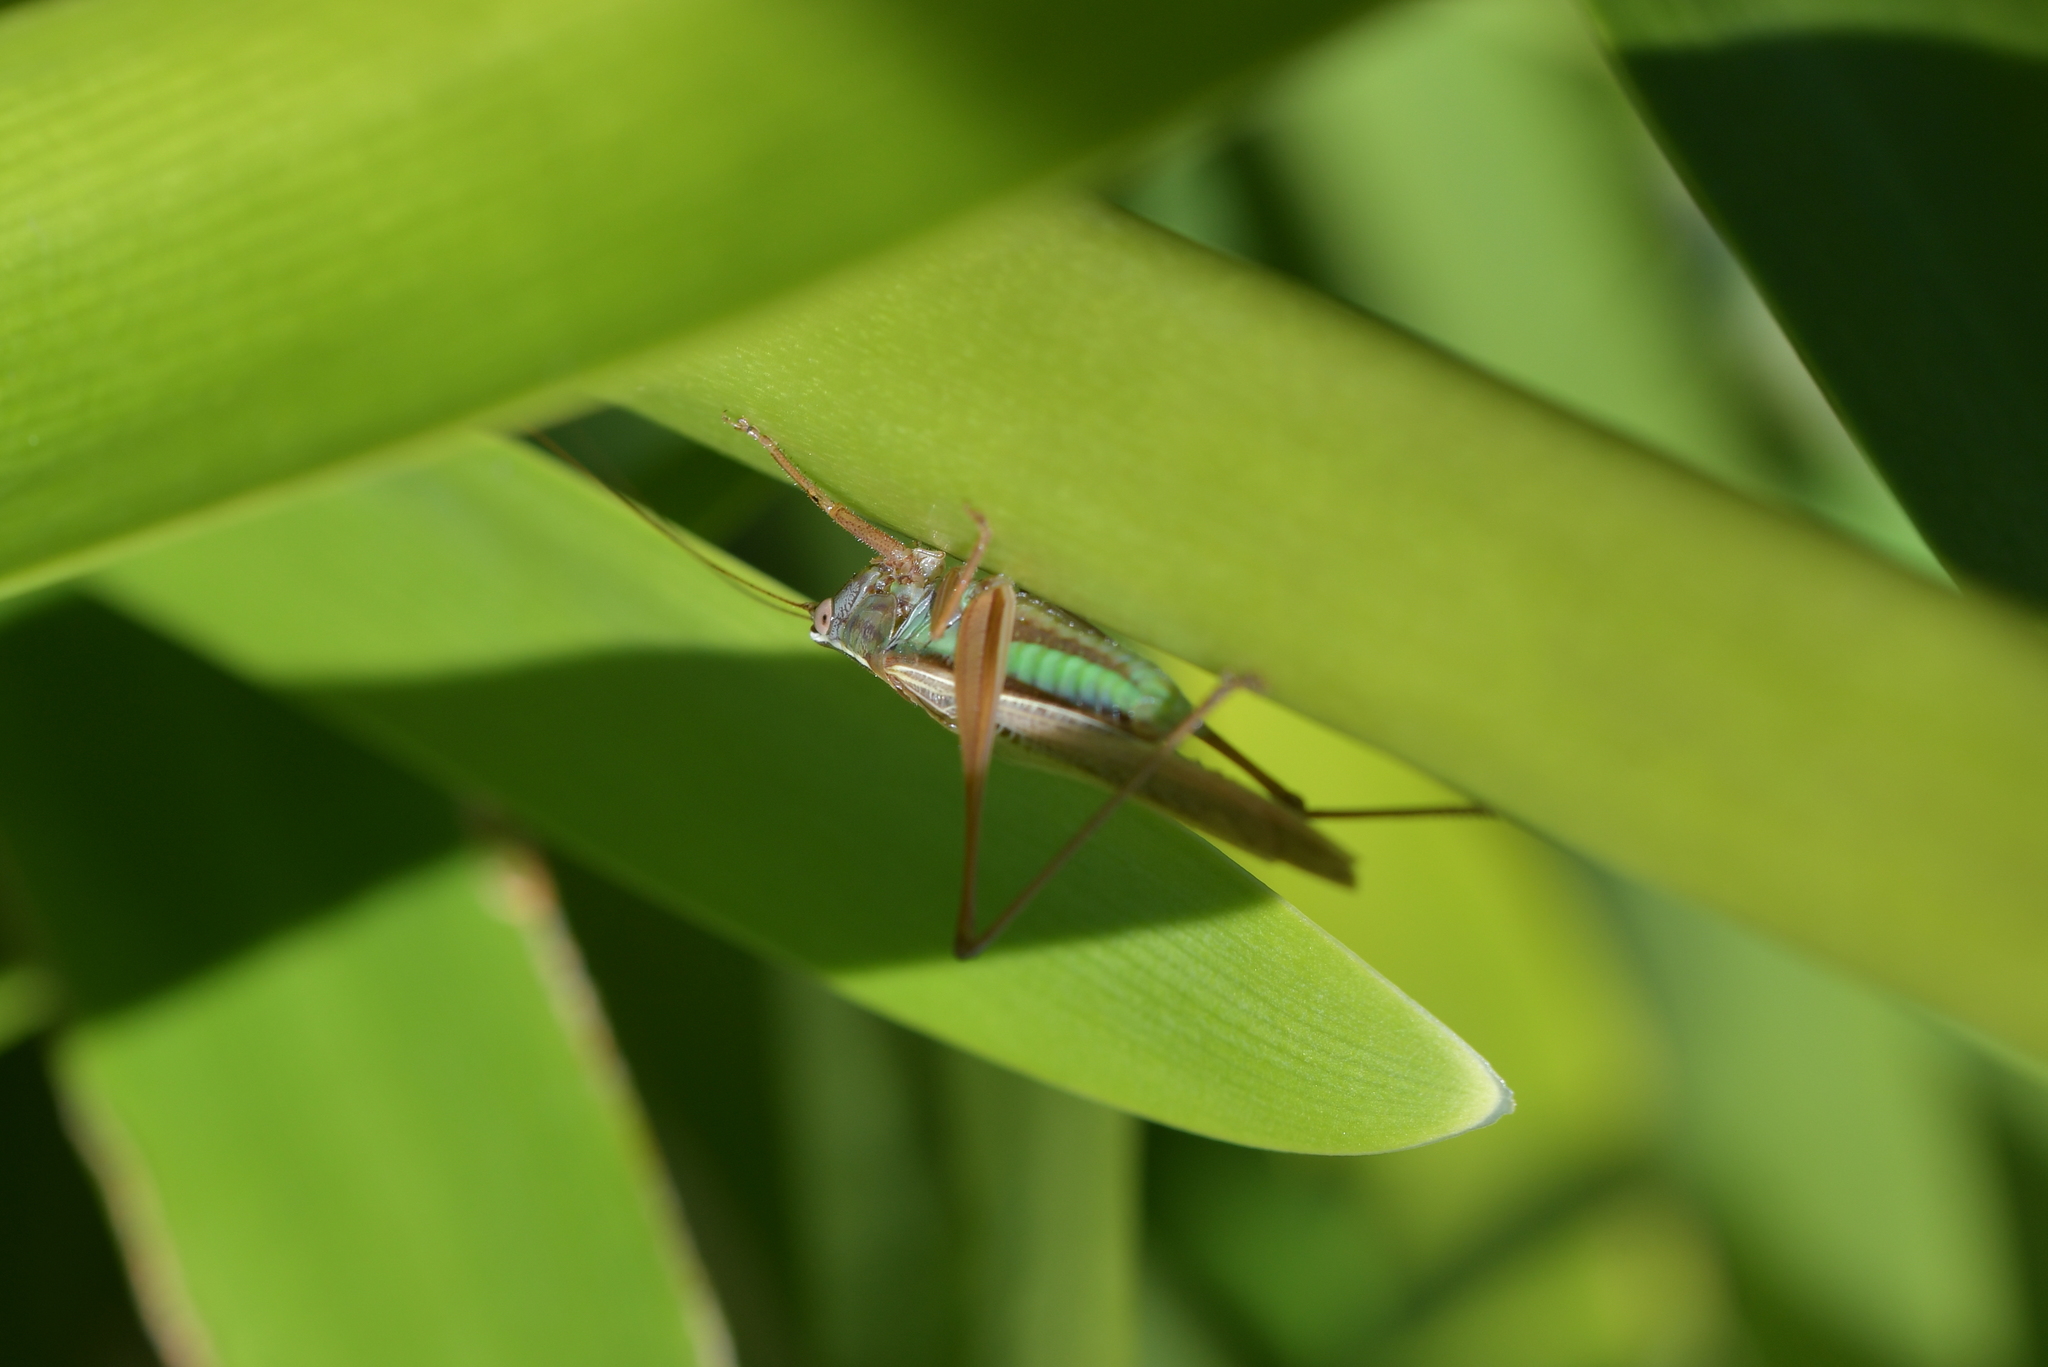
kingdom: Animalia
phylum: Arthropoda
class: Insecta
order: Orthoptera
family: Tettigoniidae
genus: Conocephalus
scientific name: Conocephalus albescens
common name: Whitish meadow katydid
